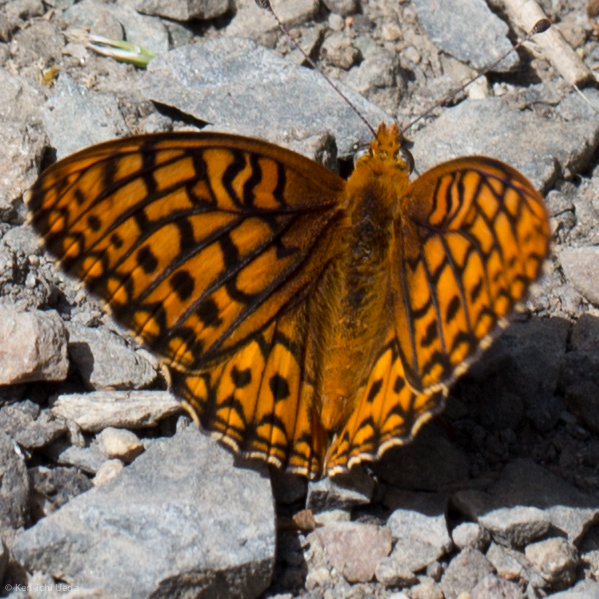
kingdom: Animalia
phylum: Arthropoda
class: Insecta
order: Lepidoptera
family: Nymphalidae
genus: Speyeria
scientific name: Speyeria callippe
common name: Callippe fritillary
